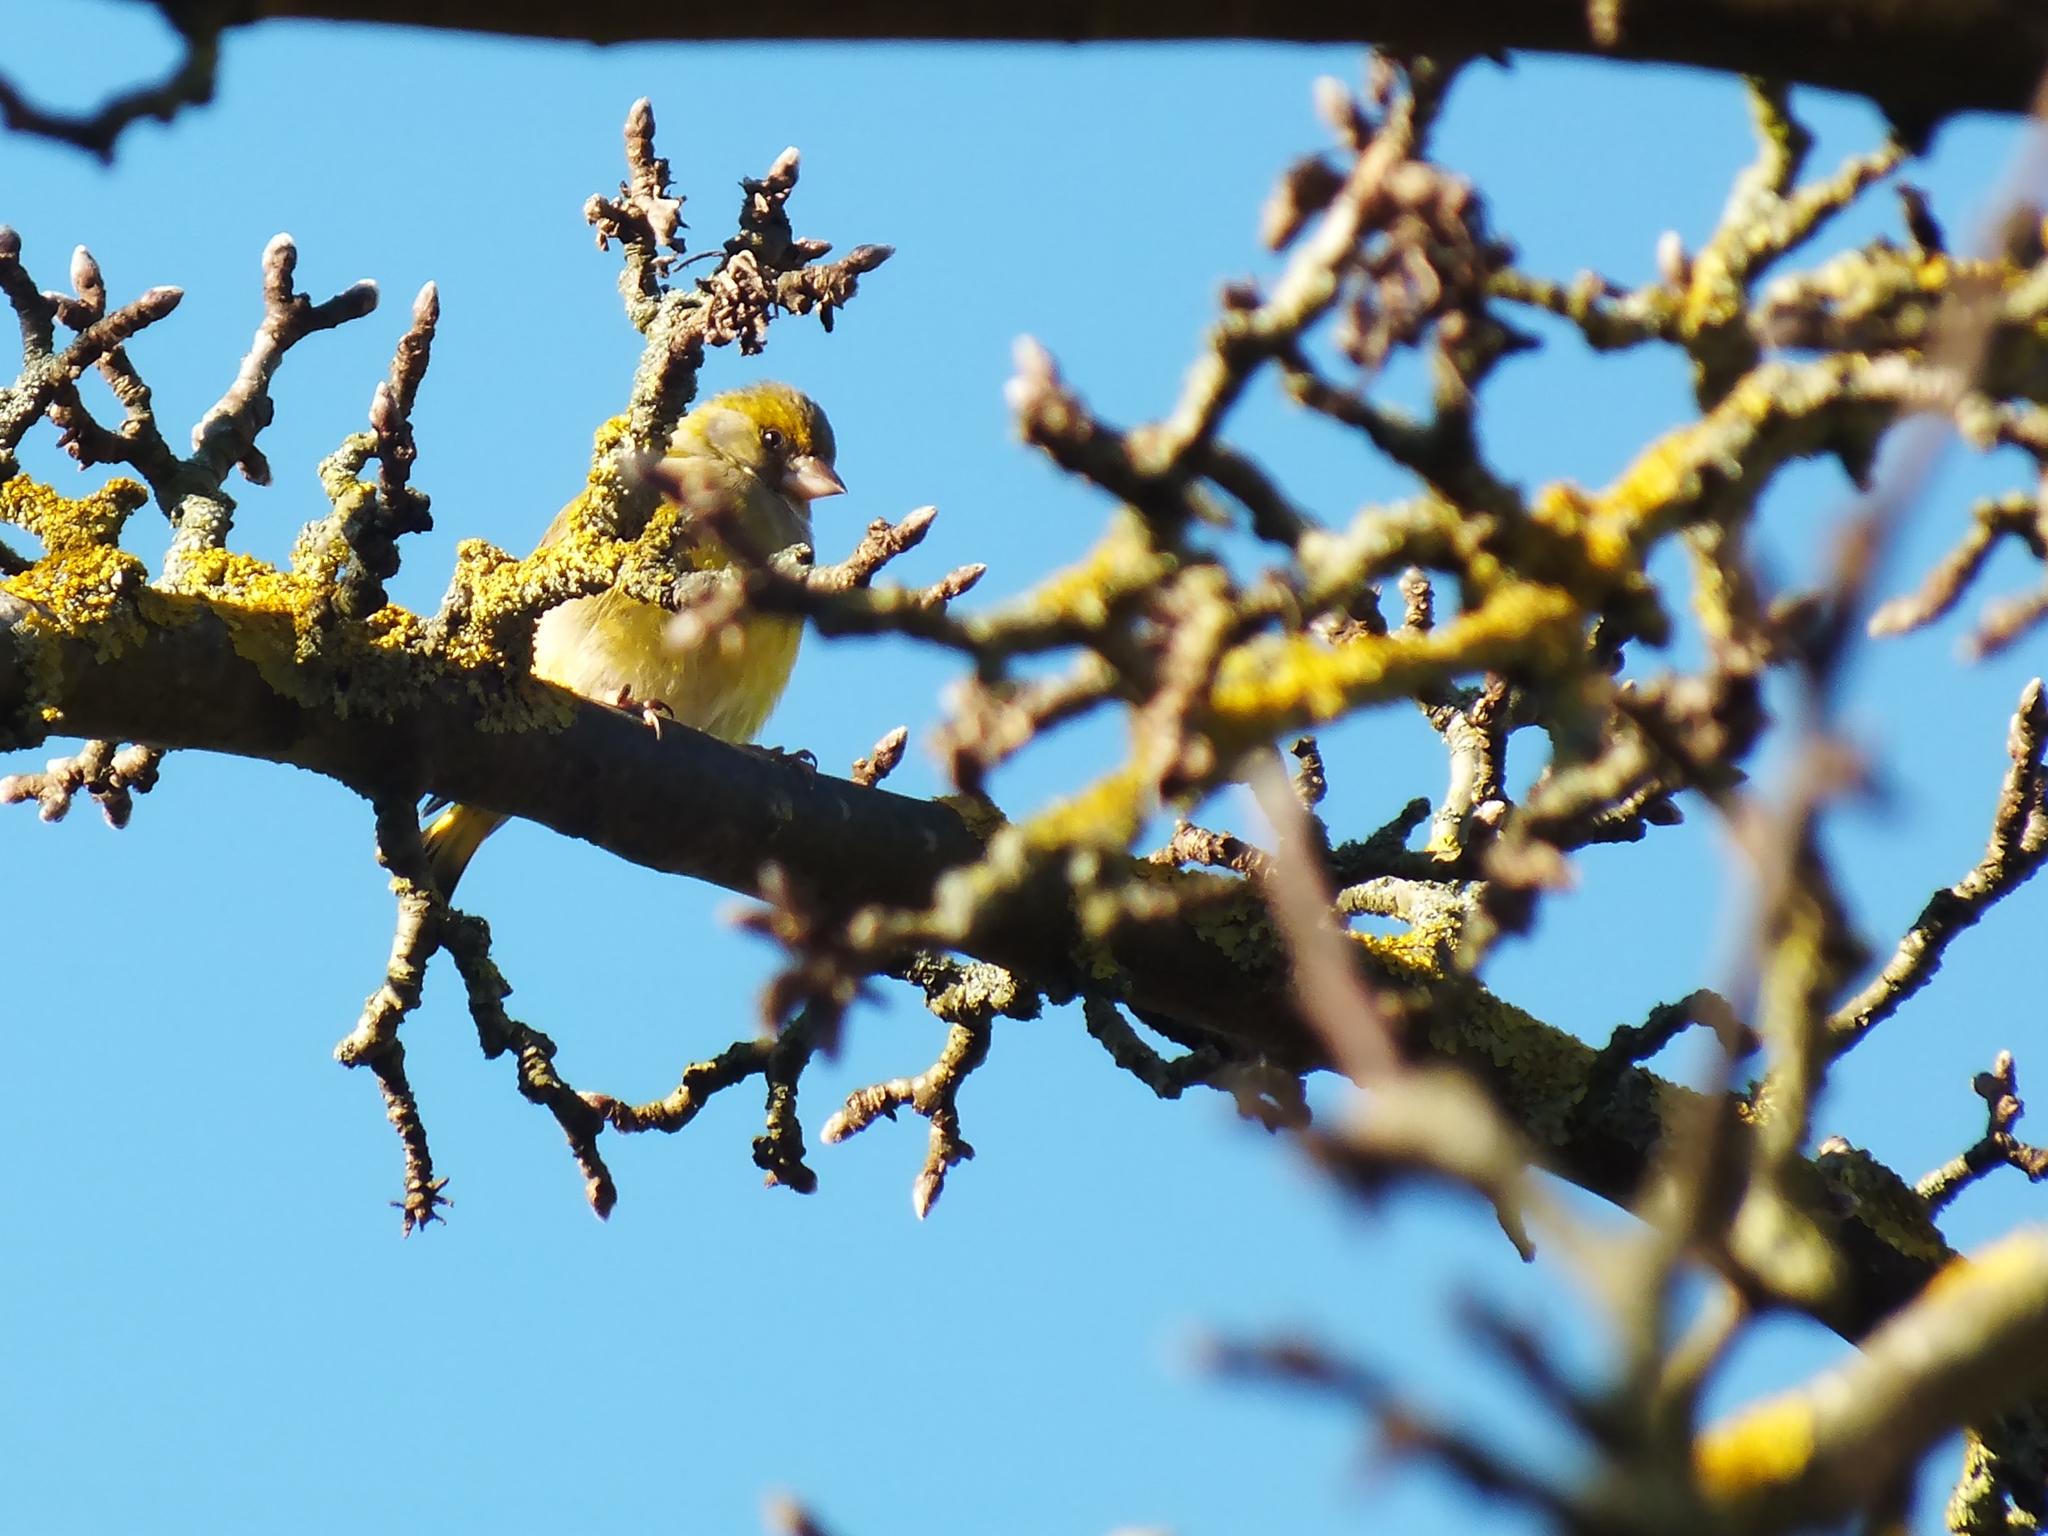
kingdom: Plantae
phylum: Tracheophyta
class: Liliopsida
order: Poales
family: Poaceae
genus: Chloris
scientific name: Chloris chloris
